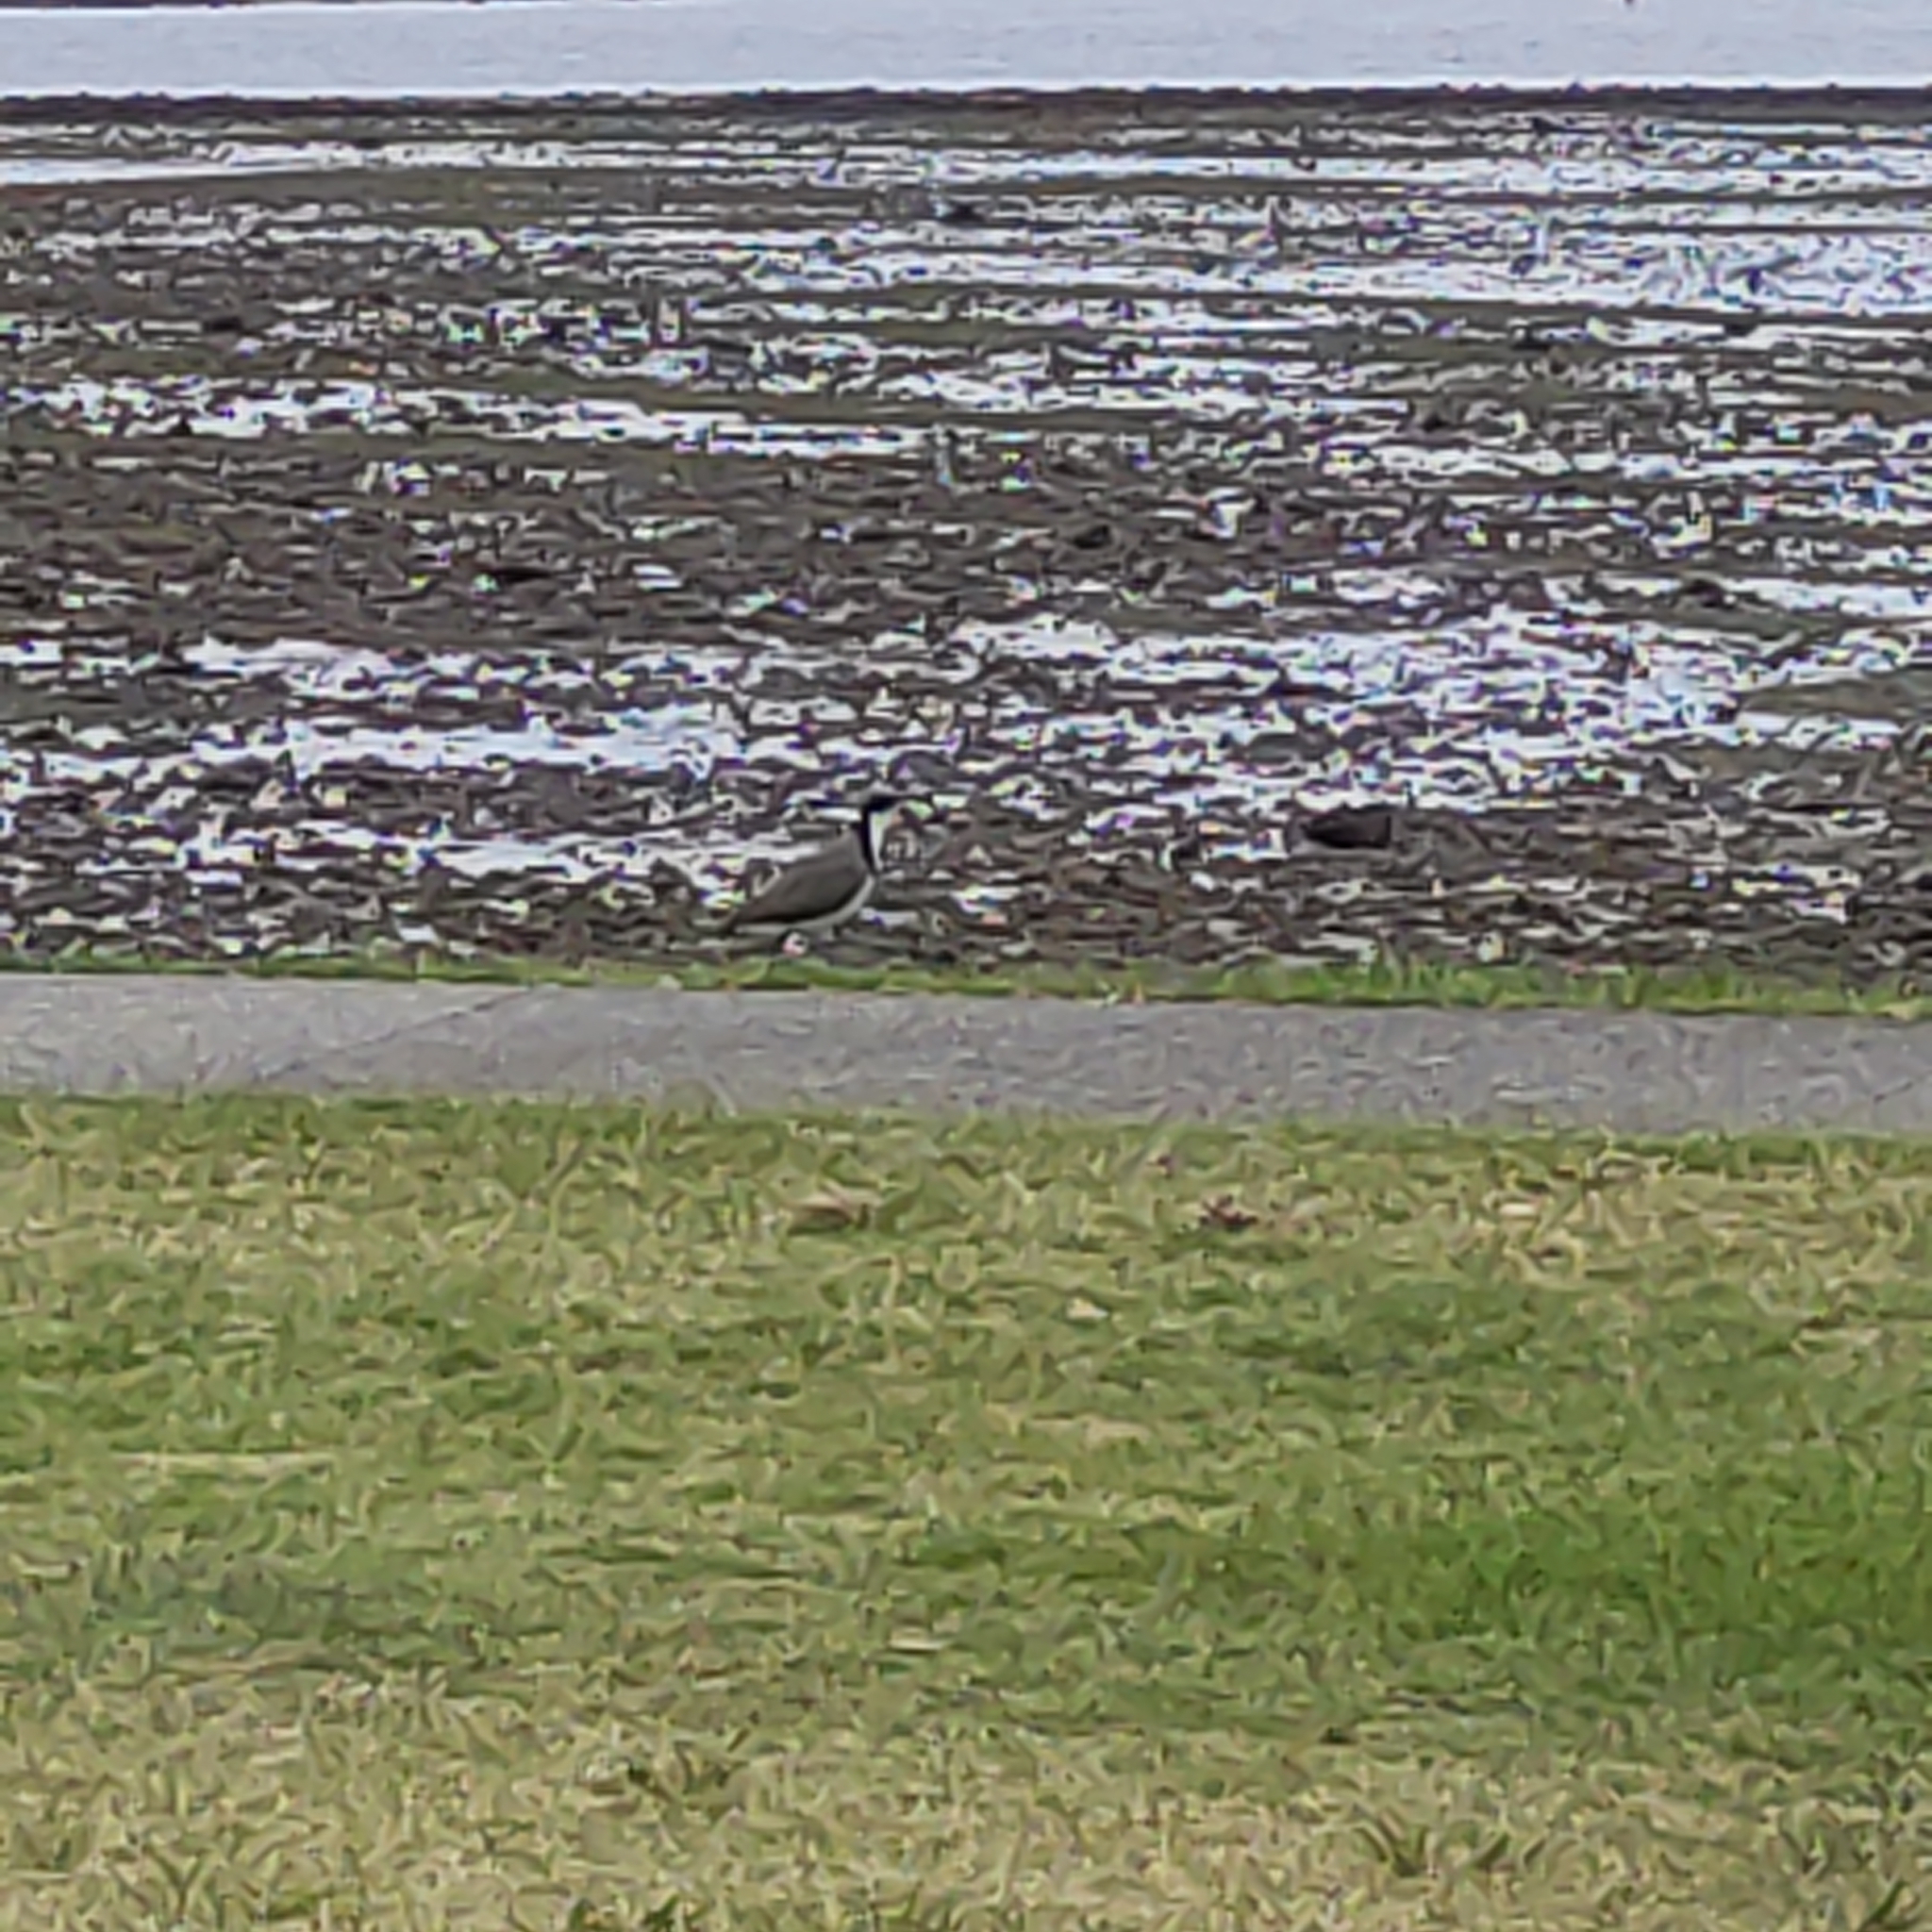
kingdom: Animalia
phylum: Chordata
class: Aves
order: Charadriiformes
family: Charadriidae
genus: Vanellus
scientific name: Vanellus miles
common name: Masked lapwing
